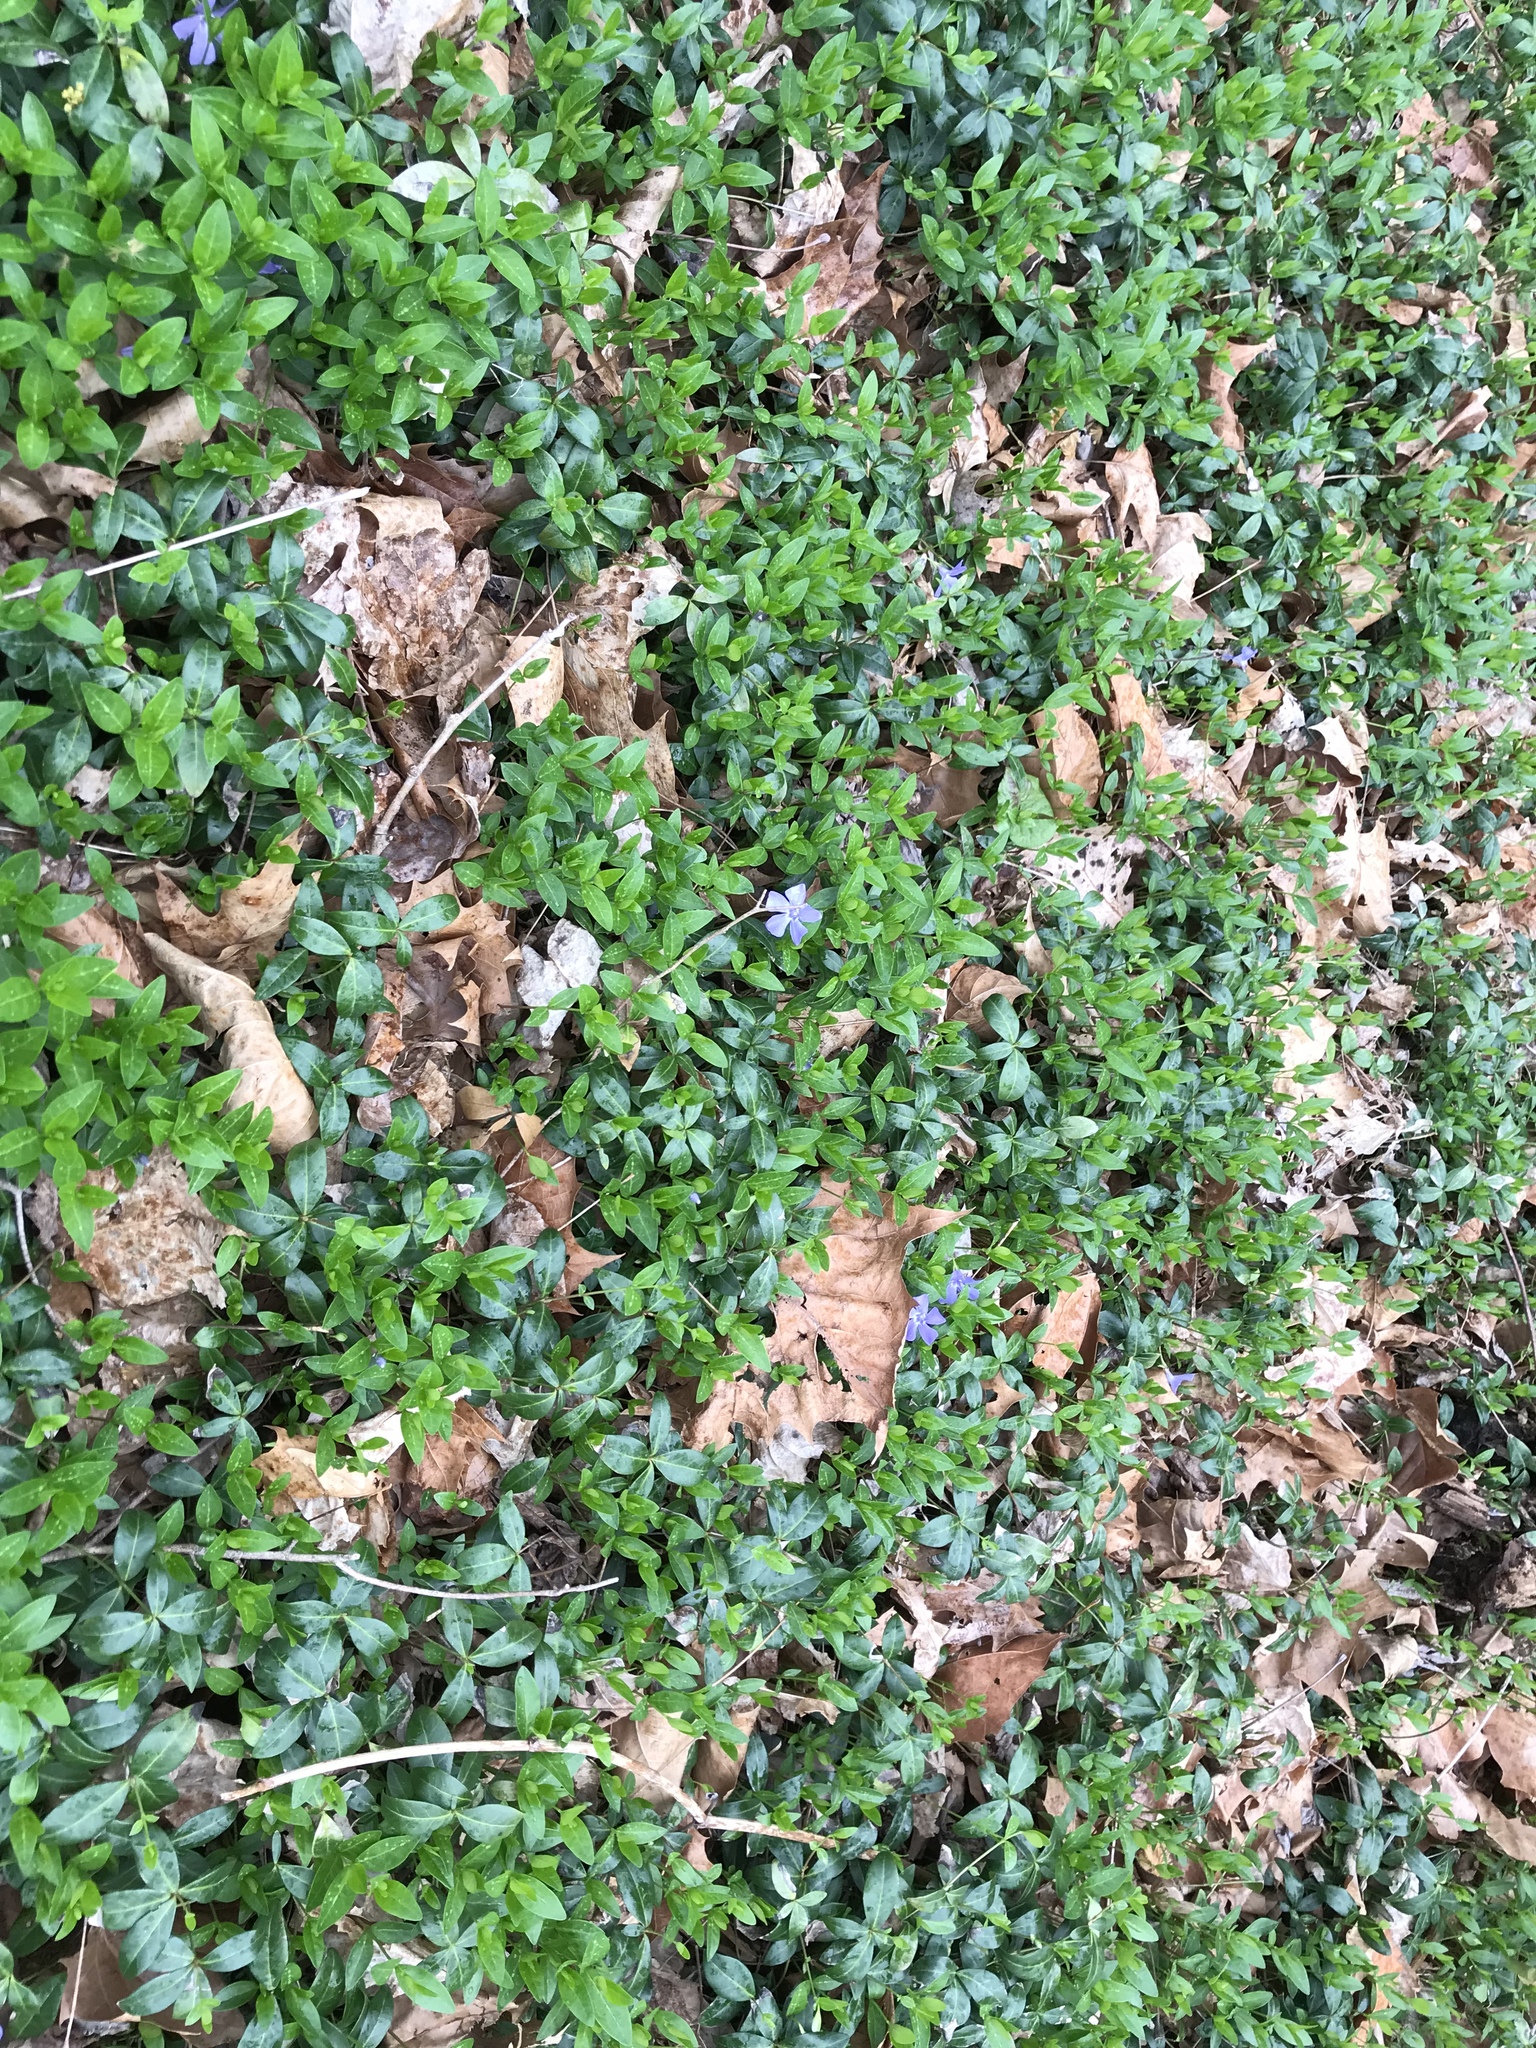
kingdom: Plantae
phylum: Tracheophyta
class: Magnoliopsida
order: Gentianales
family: Apocynaceae
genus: Vinca
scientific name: Vinca minor
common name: Lesser periwinkle
